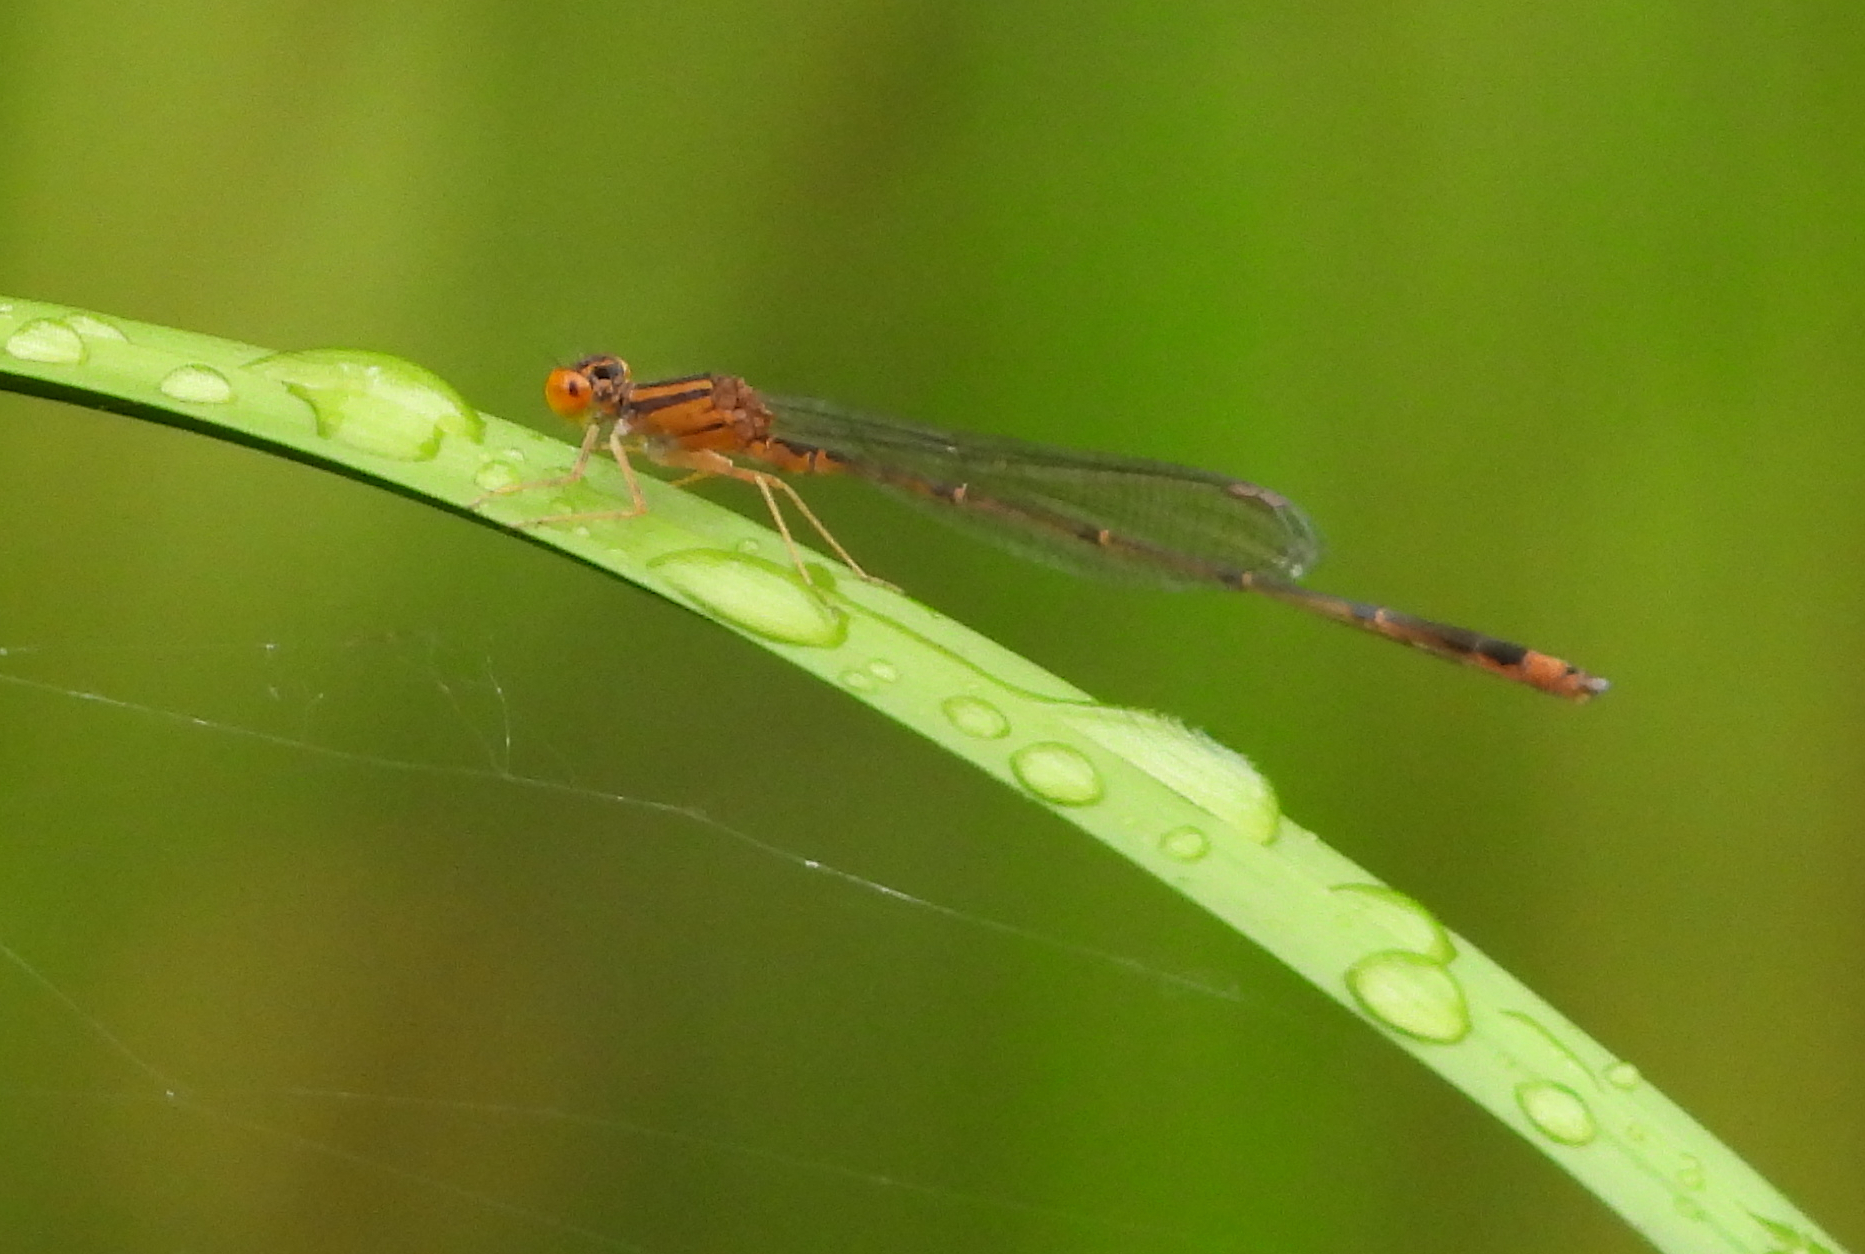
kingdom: Animalia
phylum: Arthropoda
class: Insecta
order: Odonata
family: Coenagrionidae
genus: Enallagma
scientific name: Enallagma signatum
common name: Orange bluet
